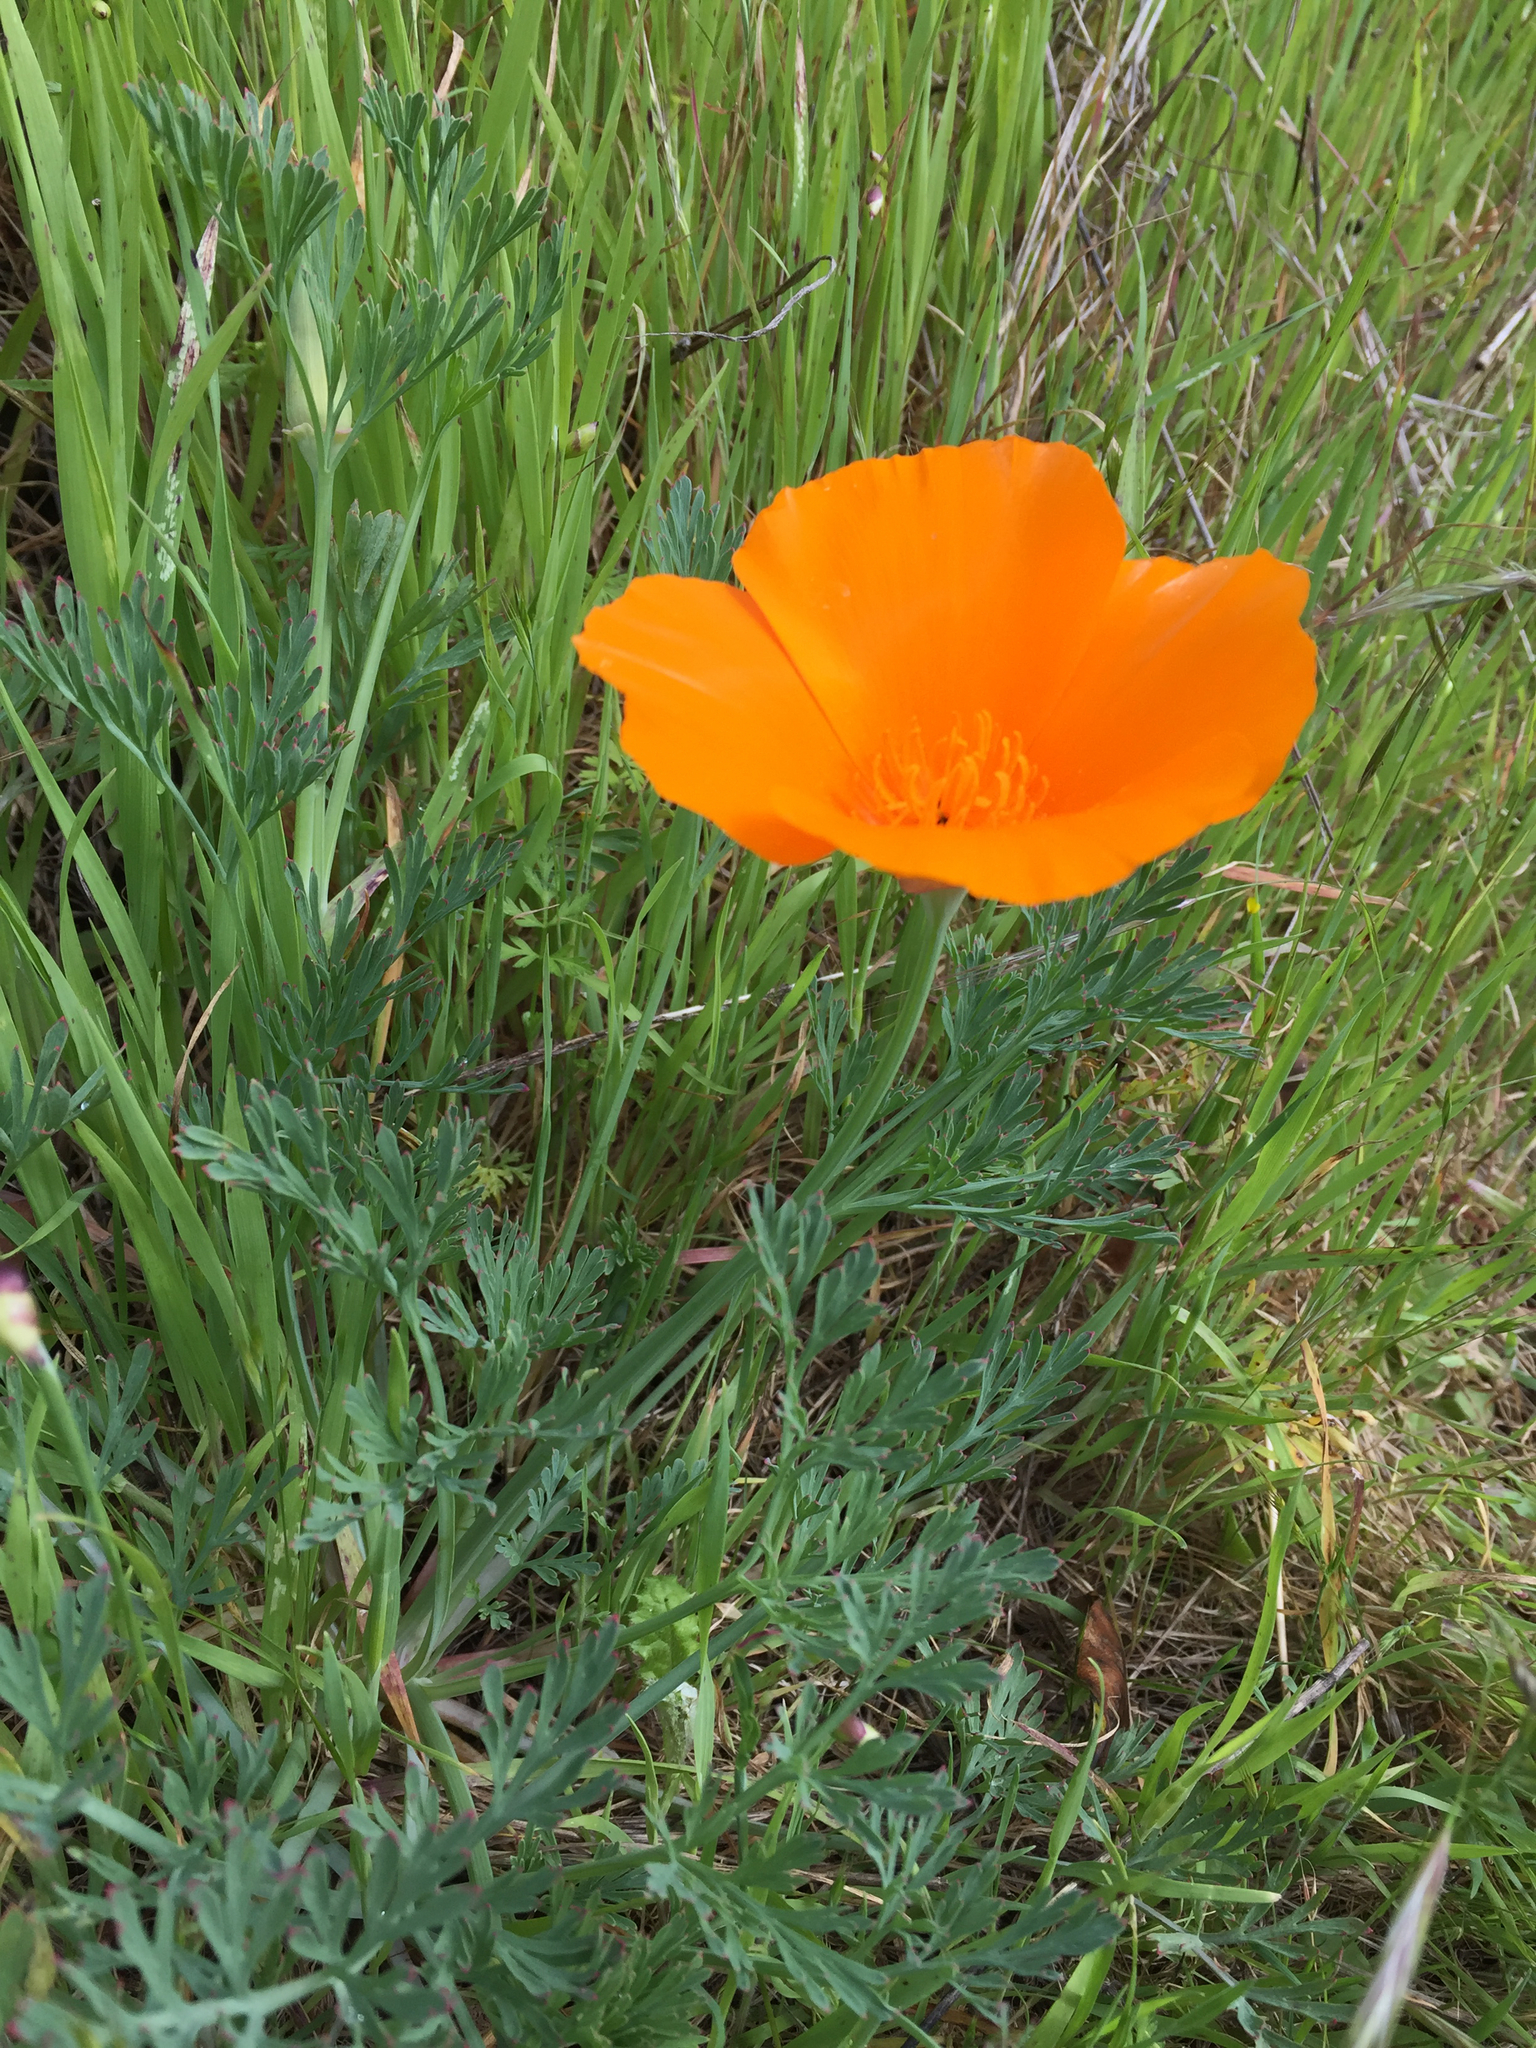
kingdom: Plantae
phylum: Tracheophyta
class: Magnoliopsida
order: Ranunculales
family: Papaveraceae
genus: Eschscholzia
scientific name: Eschscholzia californica
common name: California poppy
